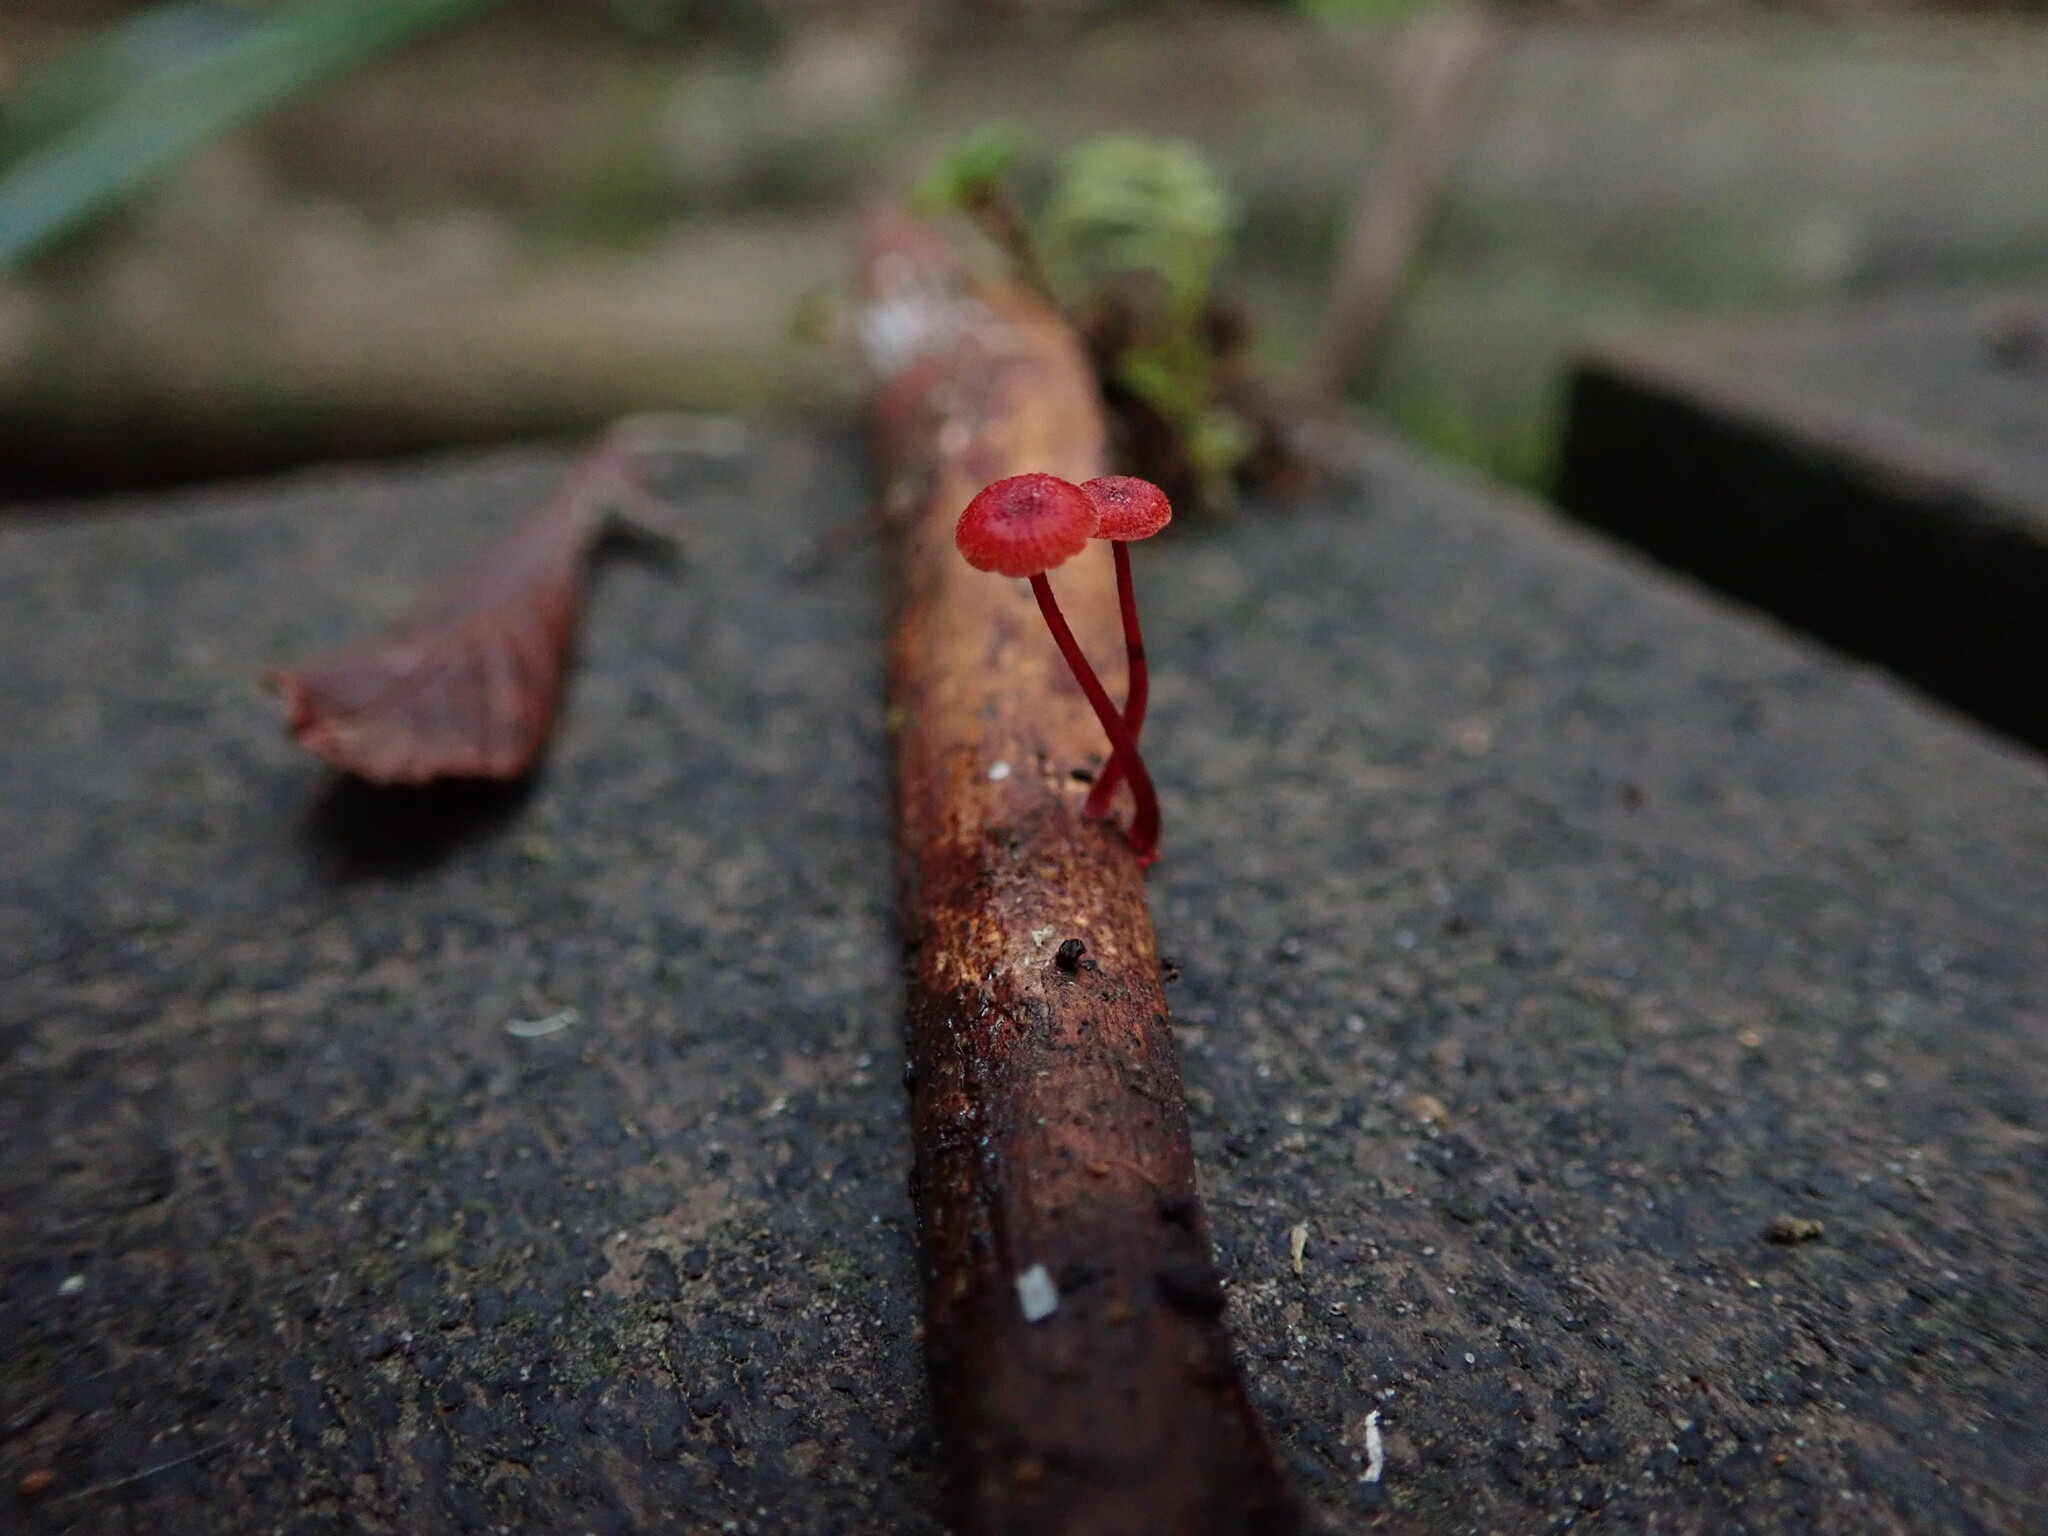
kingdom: Fungi
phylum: Basidiomycota
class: Agaricomycetes
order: Agaricales
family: Mycenaceae
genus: Cruentomycena
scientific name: Cruentomycena viscidocruenta
